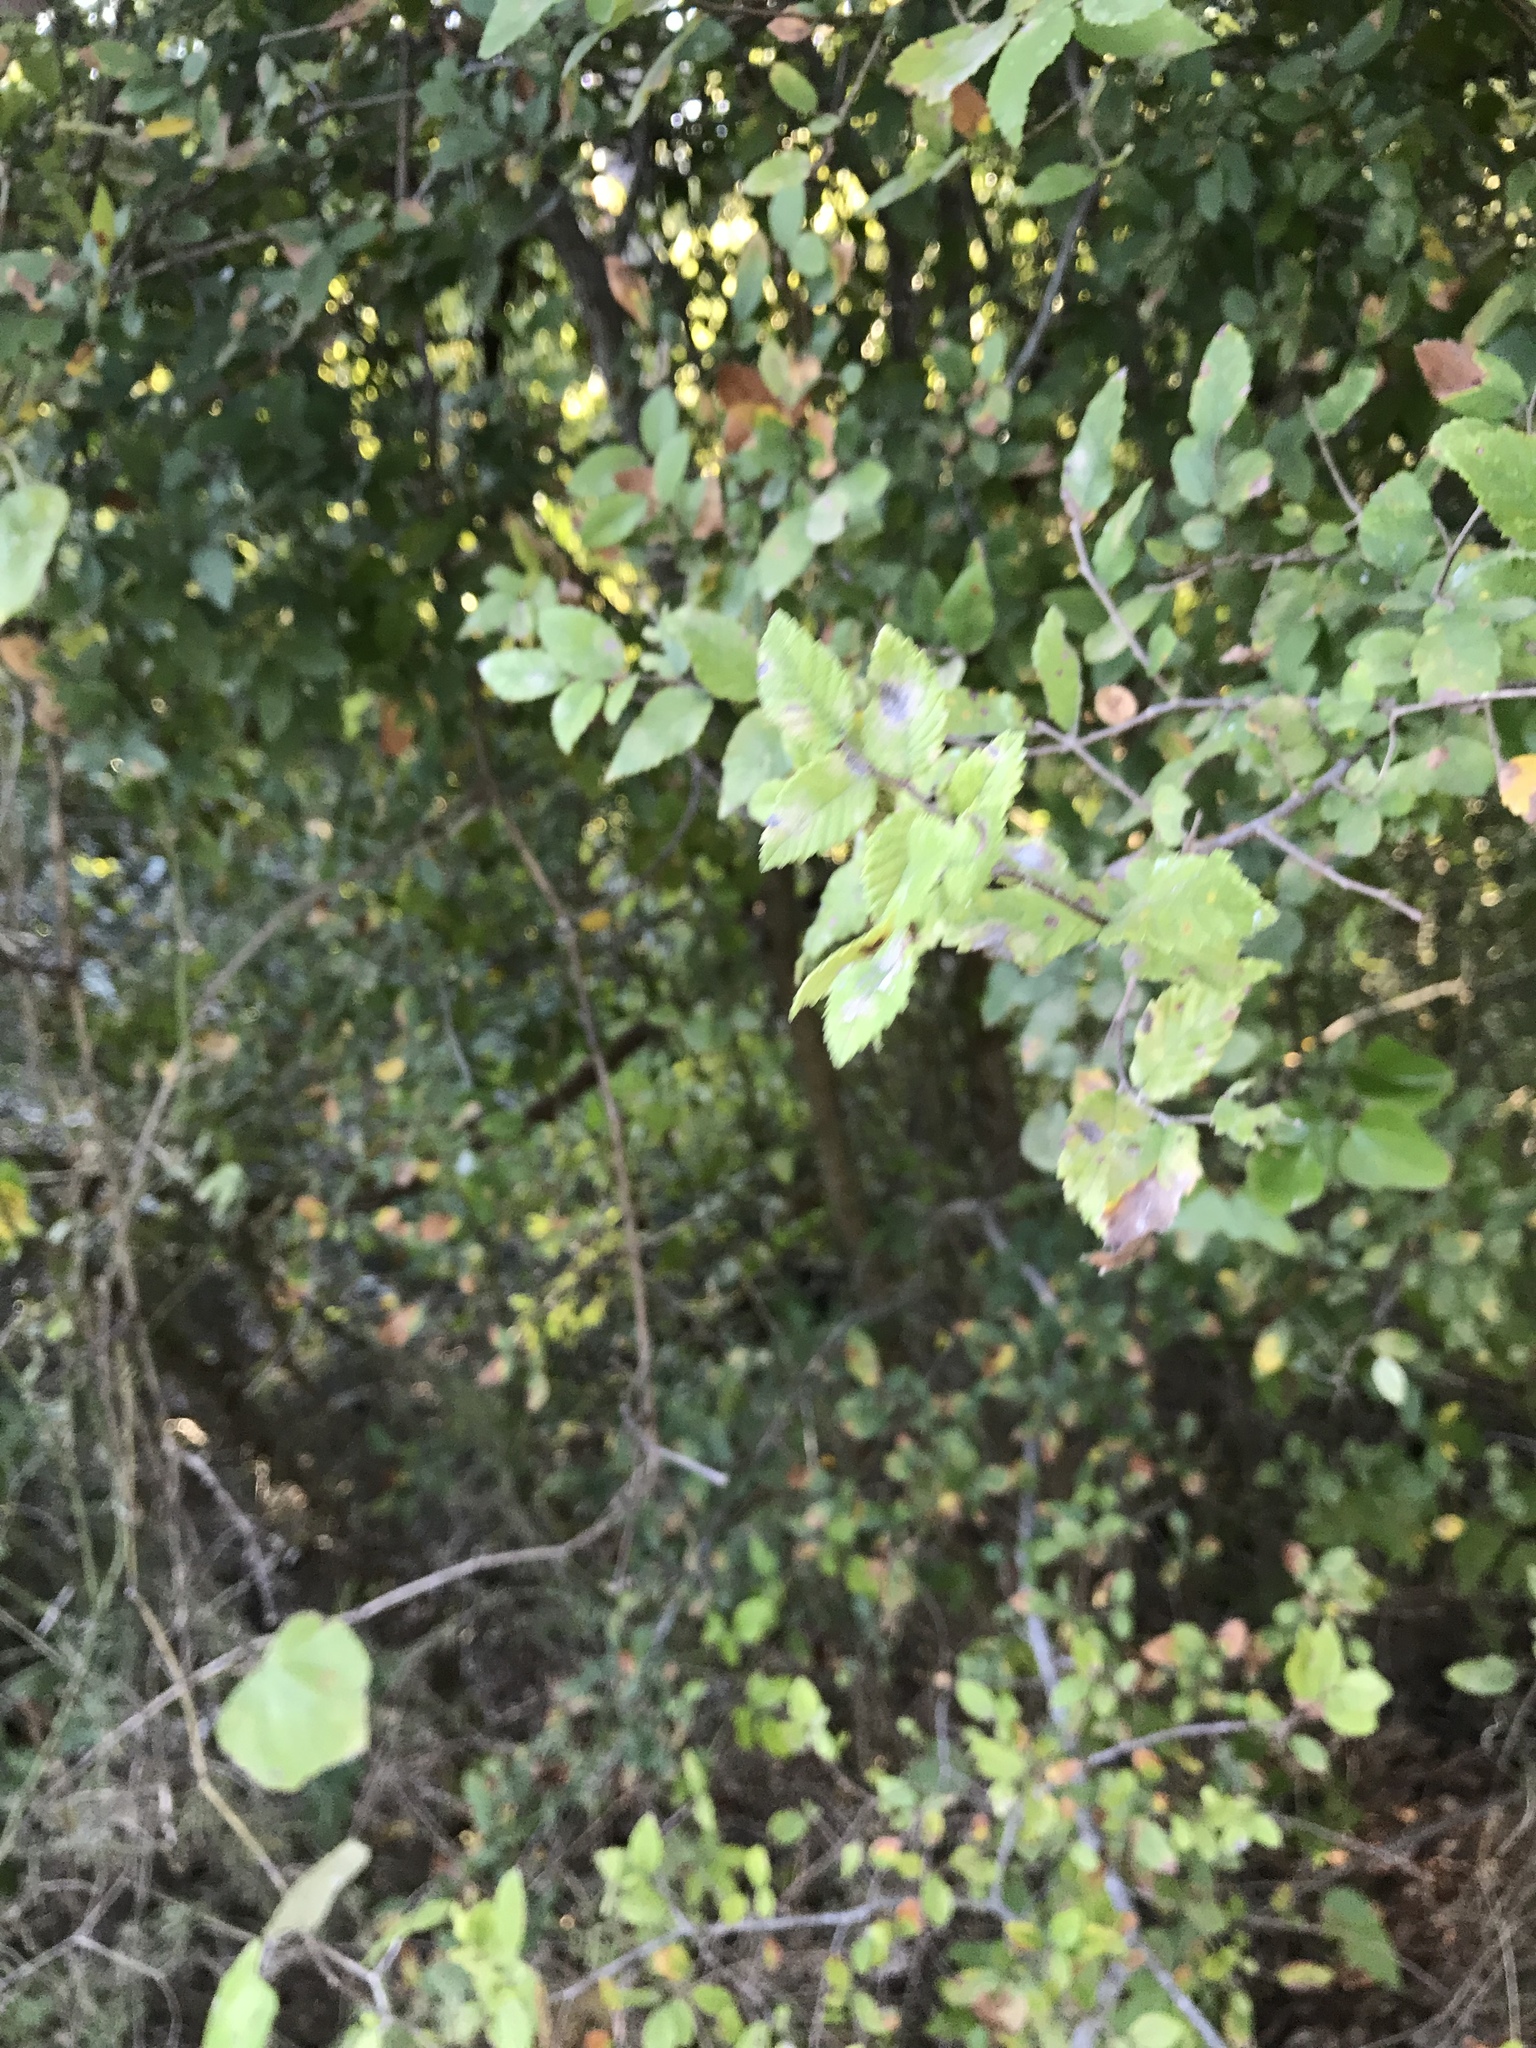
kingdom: Plantae
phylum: Tracheophyta
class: Magnoliopsida
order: Rosales
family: Ulmaceae
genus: Ulmus
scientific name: Ulmus crassifolia
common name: Basket elm
